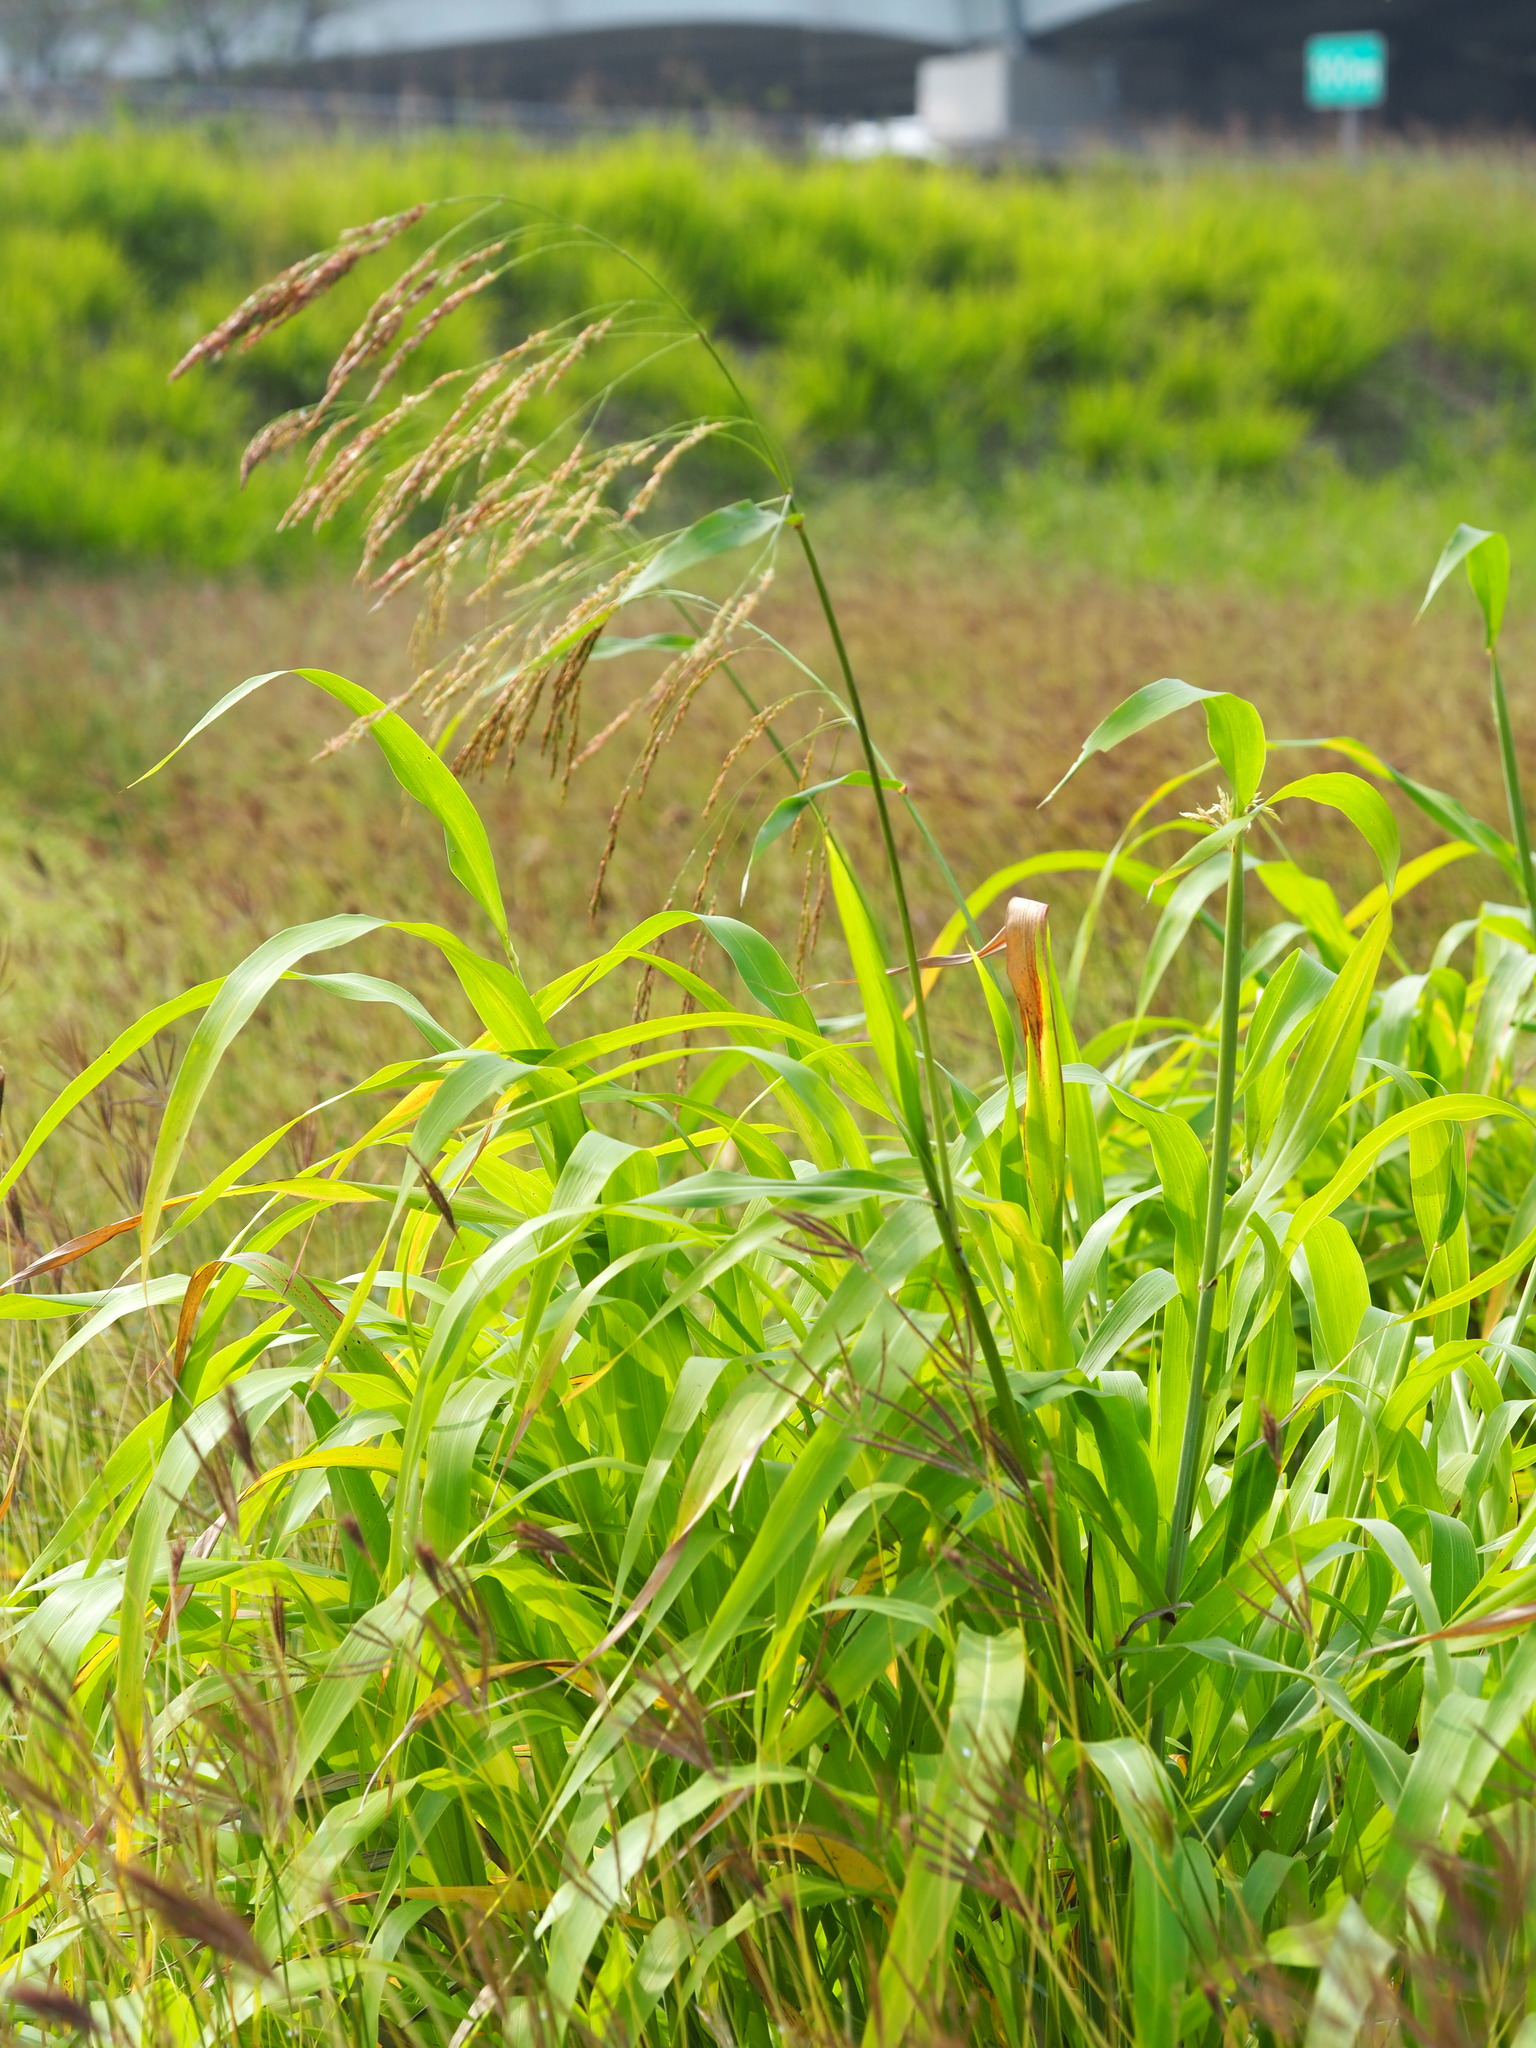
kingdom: Plantae
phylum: Tracheophyta
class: Liliopsida
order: Poales
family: Poaceae
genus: Sorghum
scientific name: Sorghum arundinaceum
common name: Sorghum
